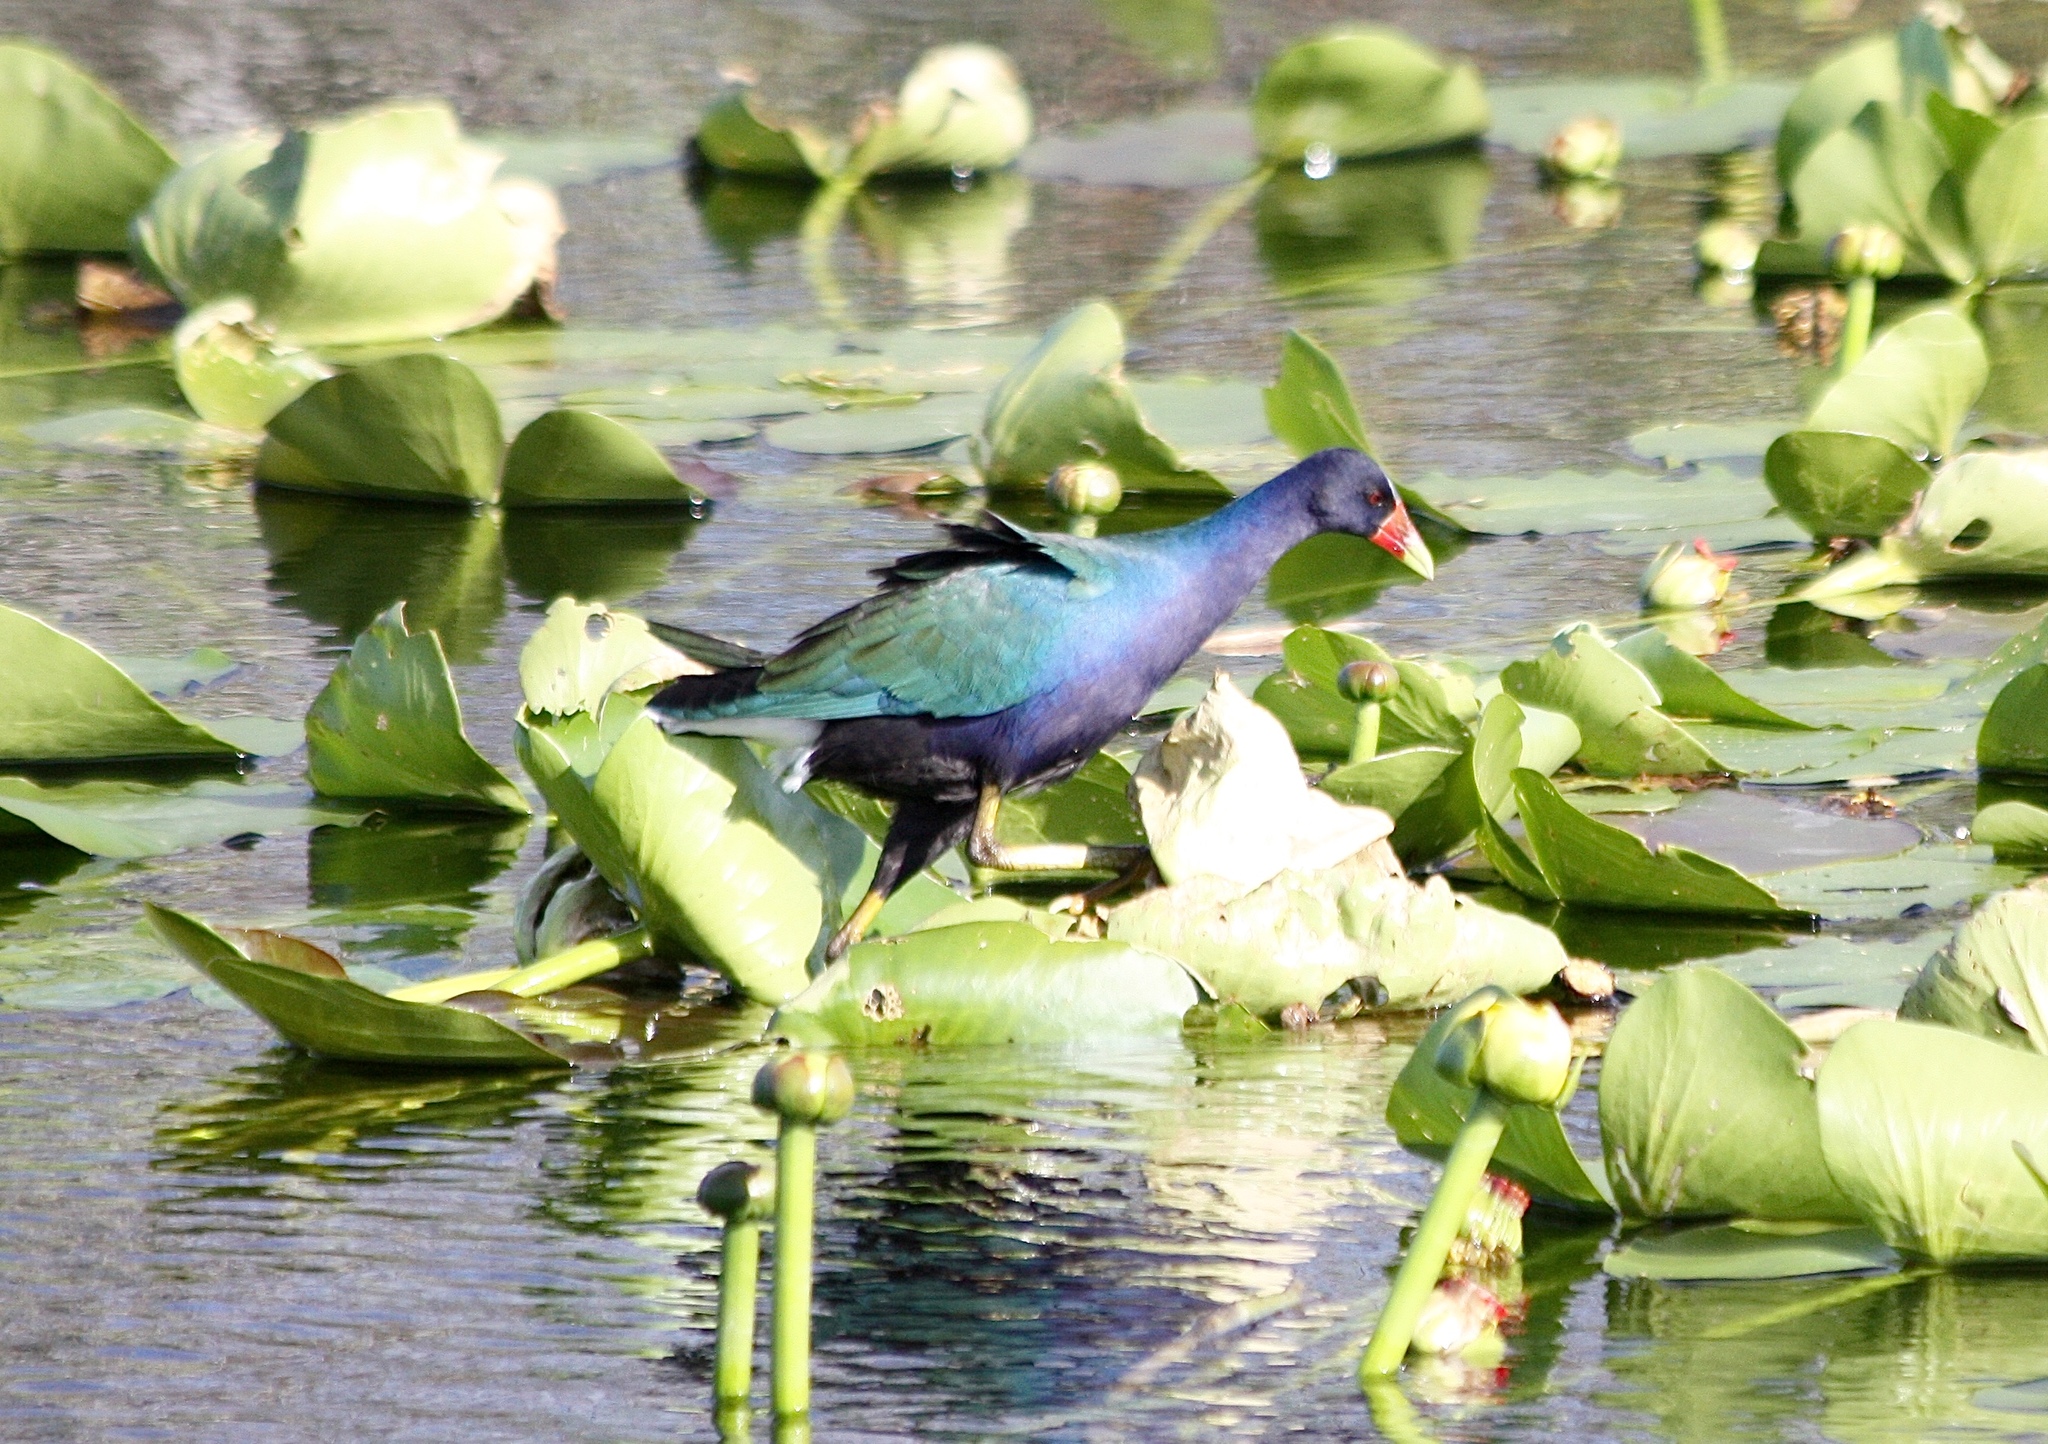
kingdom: Animalia
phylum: Chordata
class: Aves
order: Gruiformes
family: Rallidae
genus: Porphyrio
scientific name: Porphyrio martinica
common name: Purple gallinule
